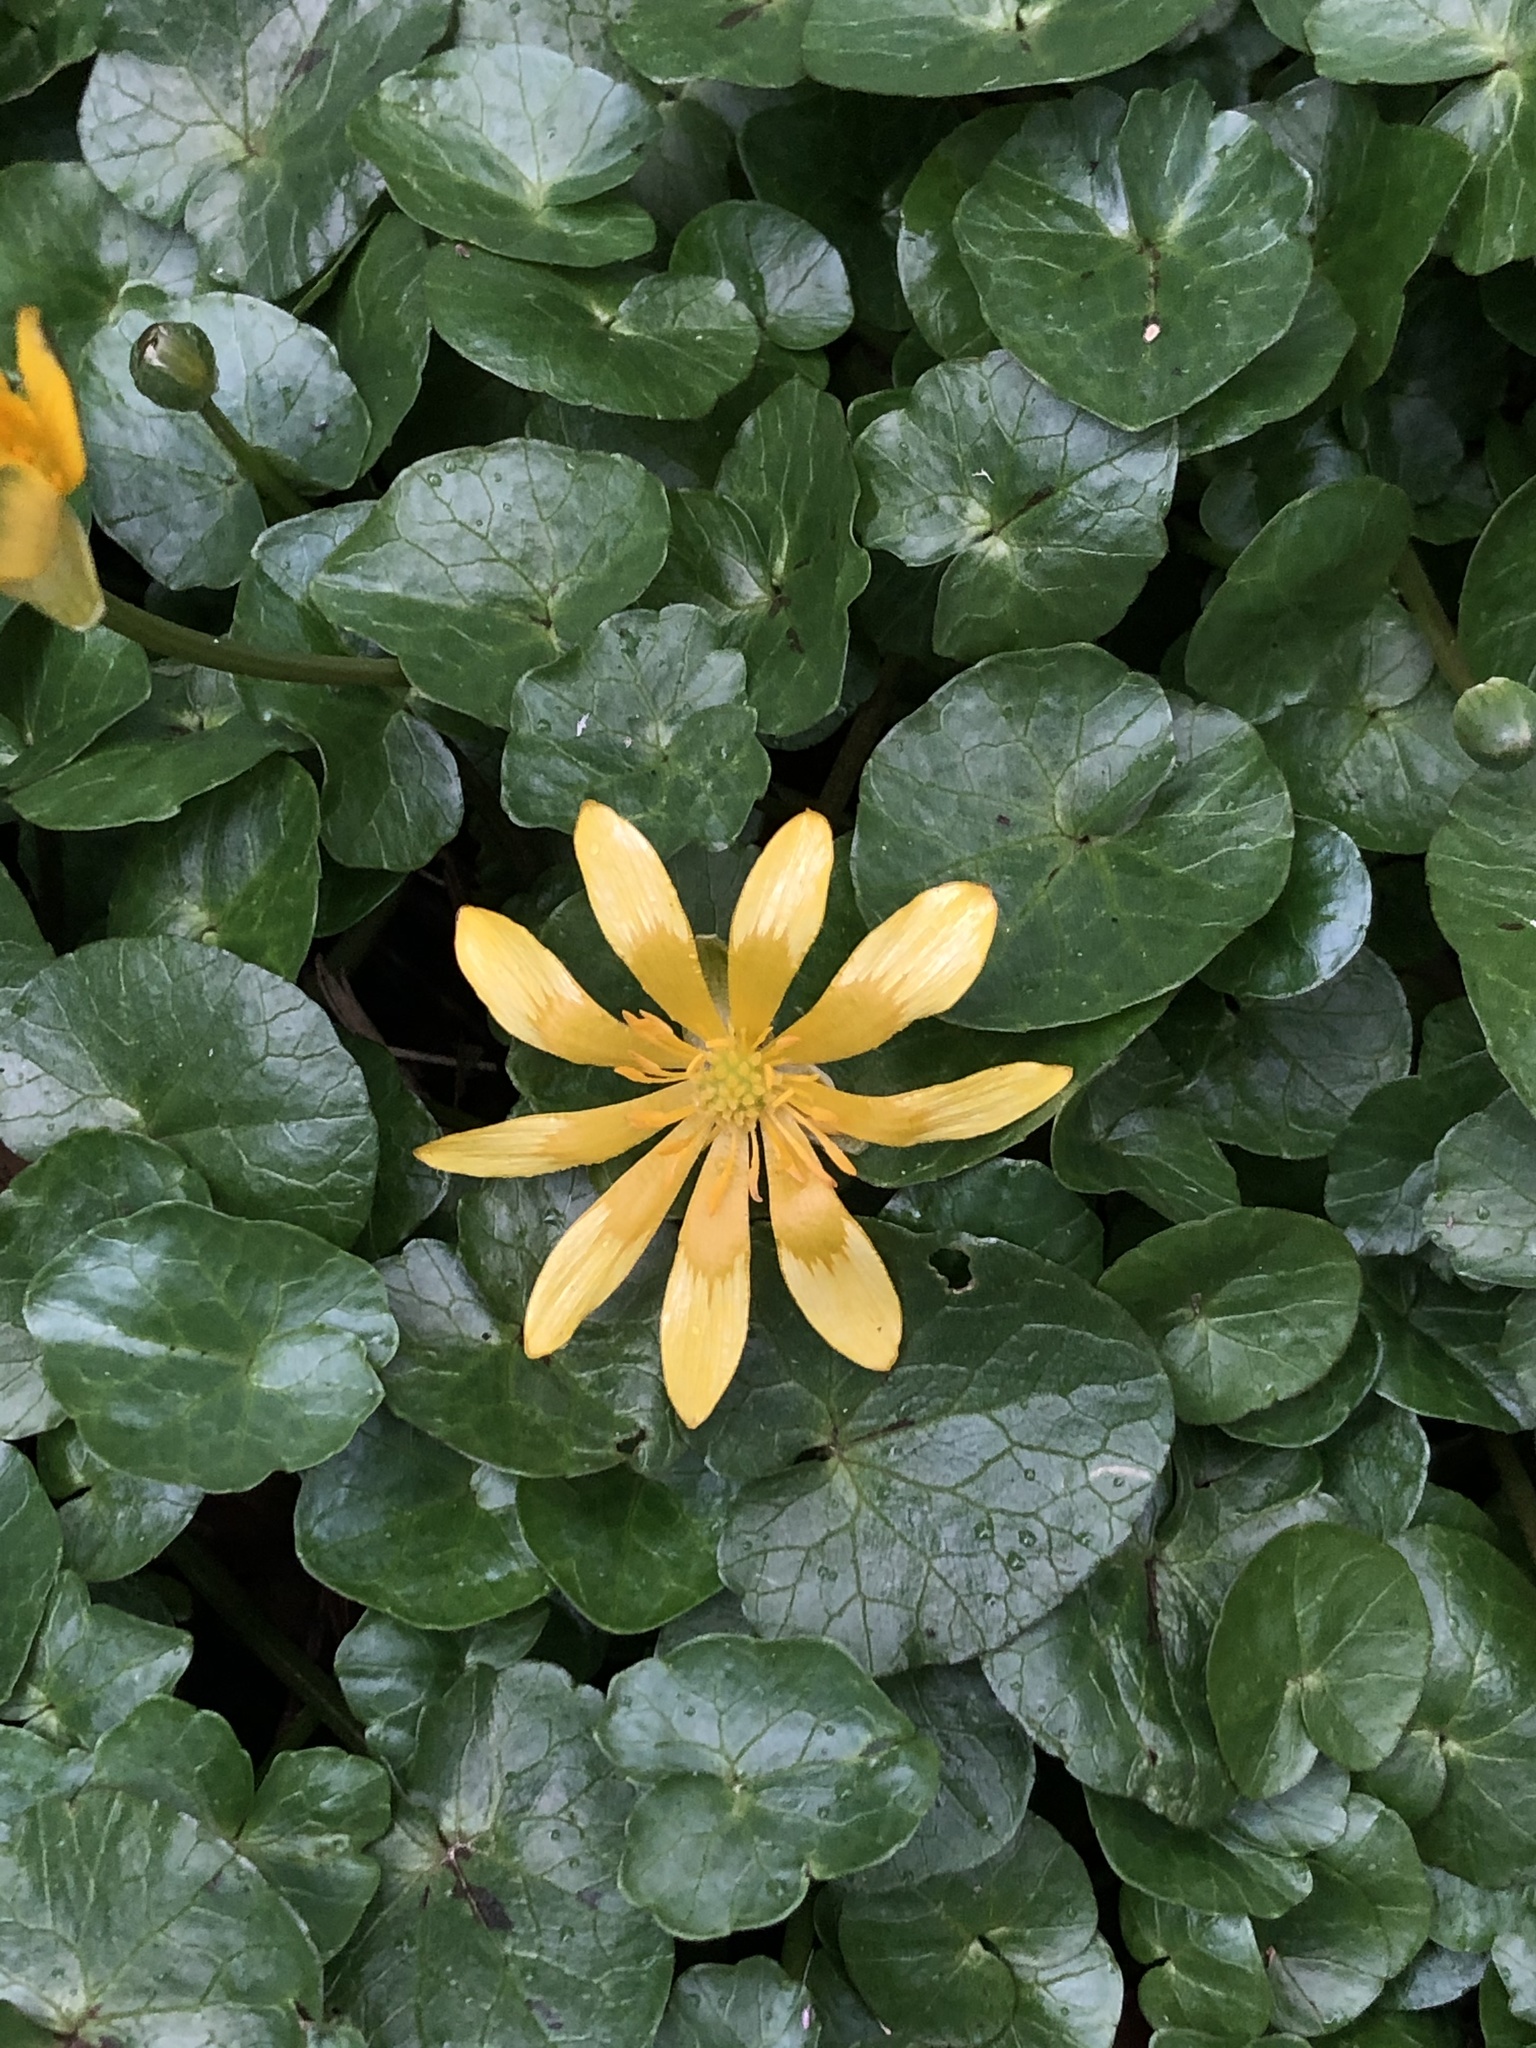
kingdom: Plantae
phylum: Tracheophyta
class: Magnoliopsida
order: Ranunculales
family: Ranunculaceae
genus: Ficaria
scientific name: Ficaria verna
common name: Lesser celandine
